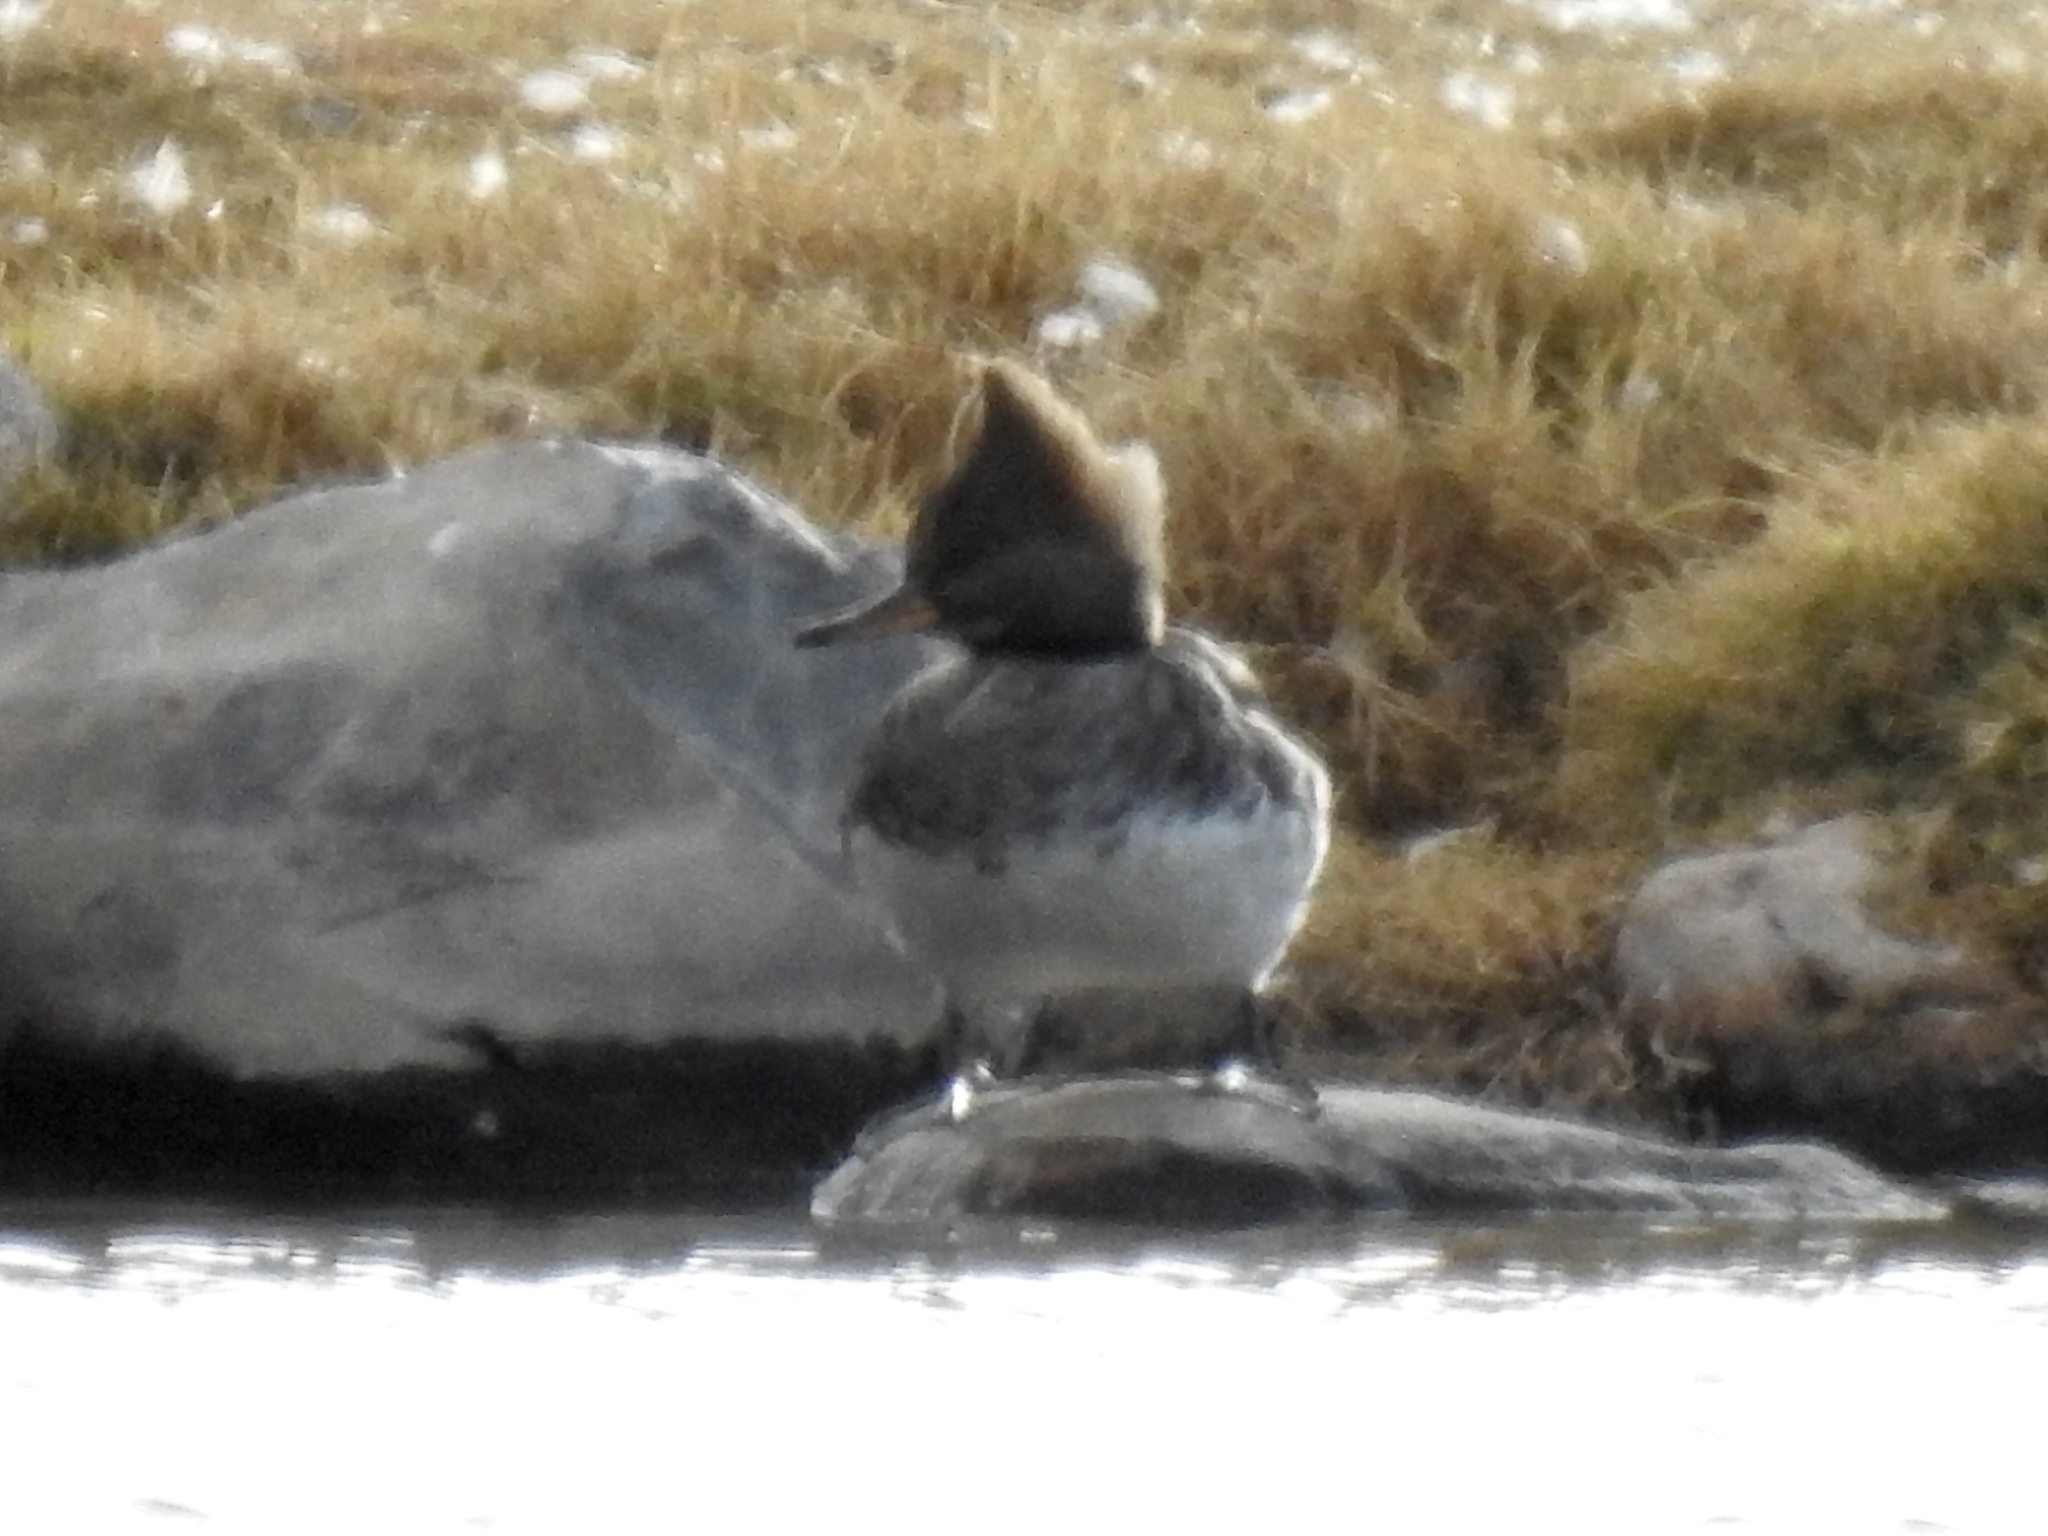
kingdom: Animalia
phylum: Chordata
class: Aves
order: Anseriformes
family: Anatidae
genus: Lophodytes
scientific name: Lophodytes cucullatus
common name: Hooded merganser
